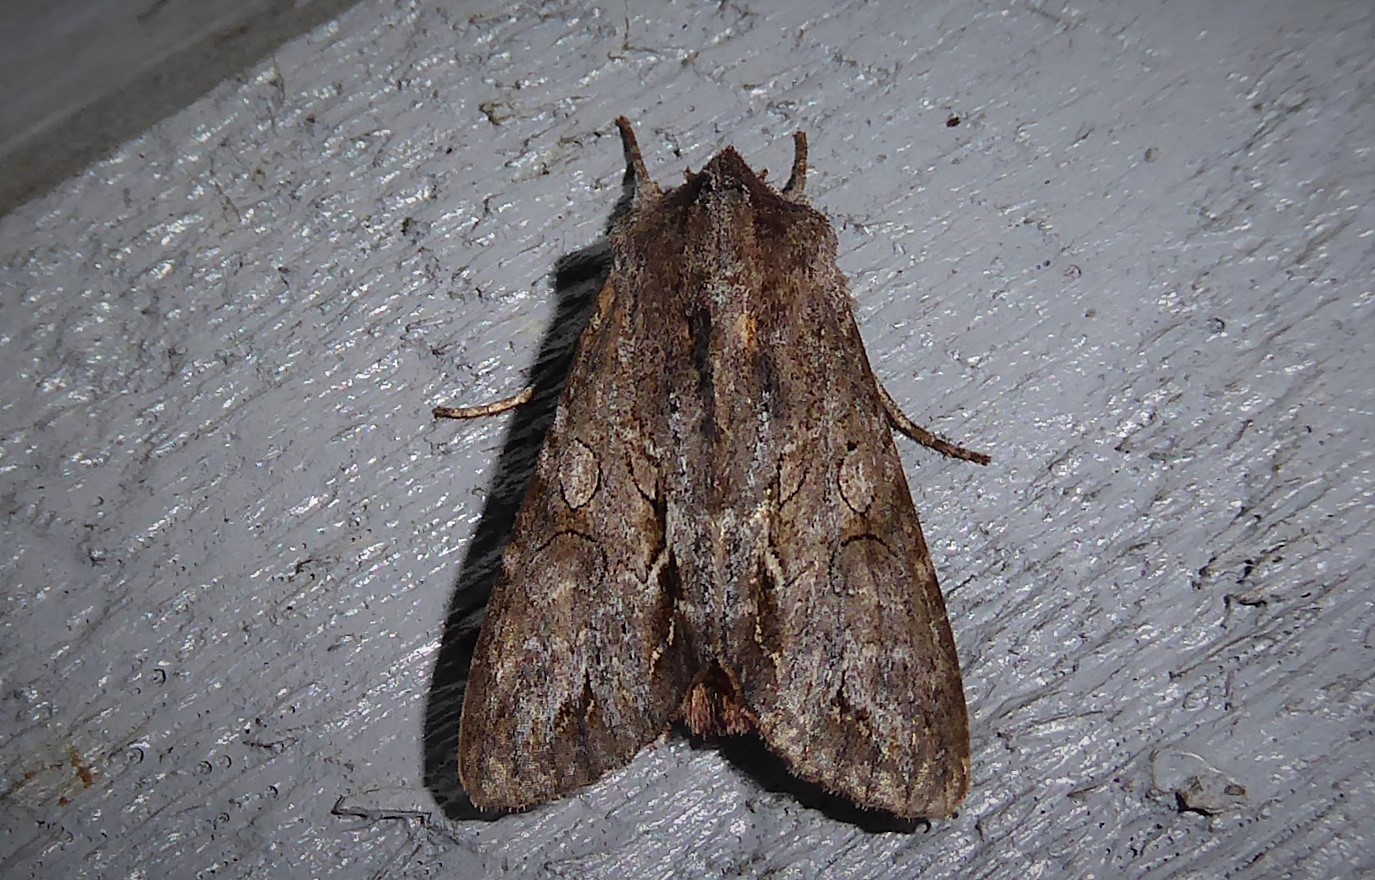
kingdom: Animalia
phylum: Arthropoda
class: Insecta
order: Lepidoptera
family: Noctuidae
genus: Ichneutica
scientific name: Ichneutica
